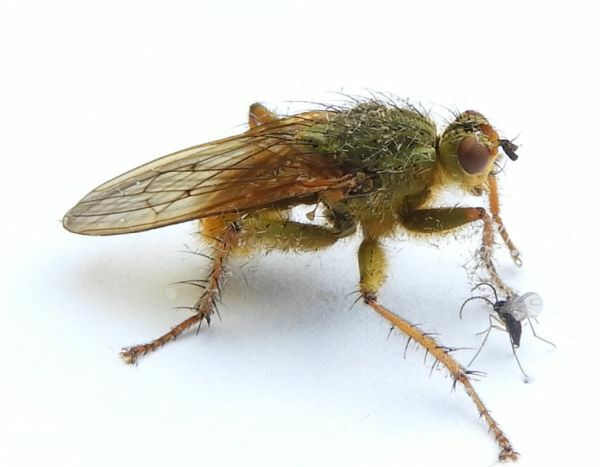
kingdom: Animalia
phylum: Arthropoda
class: Insecta
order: Diptera
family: Scathophagidae
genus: Scathophaga
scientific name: Scathophaga stercoraria
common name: Yellow dung fly
